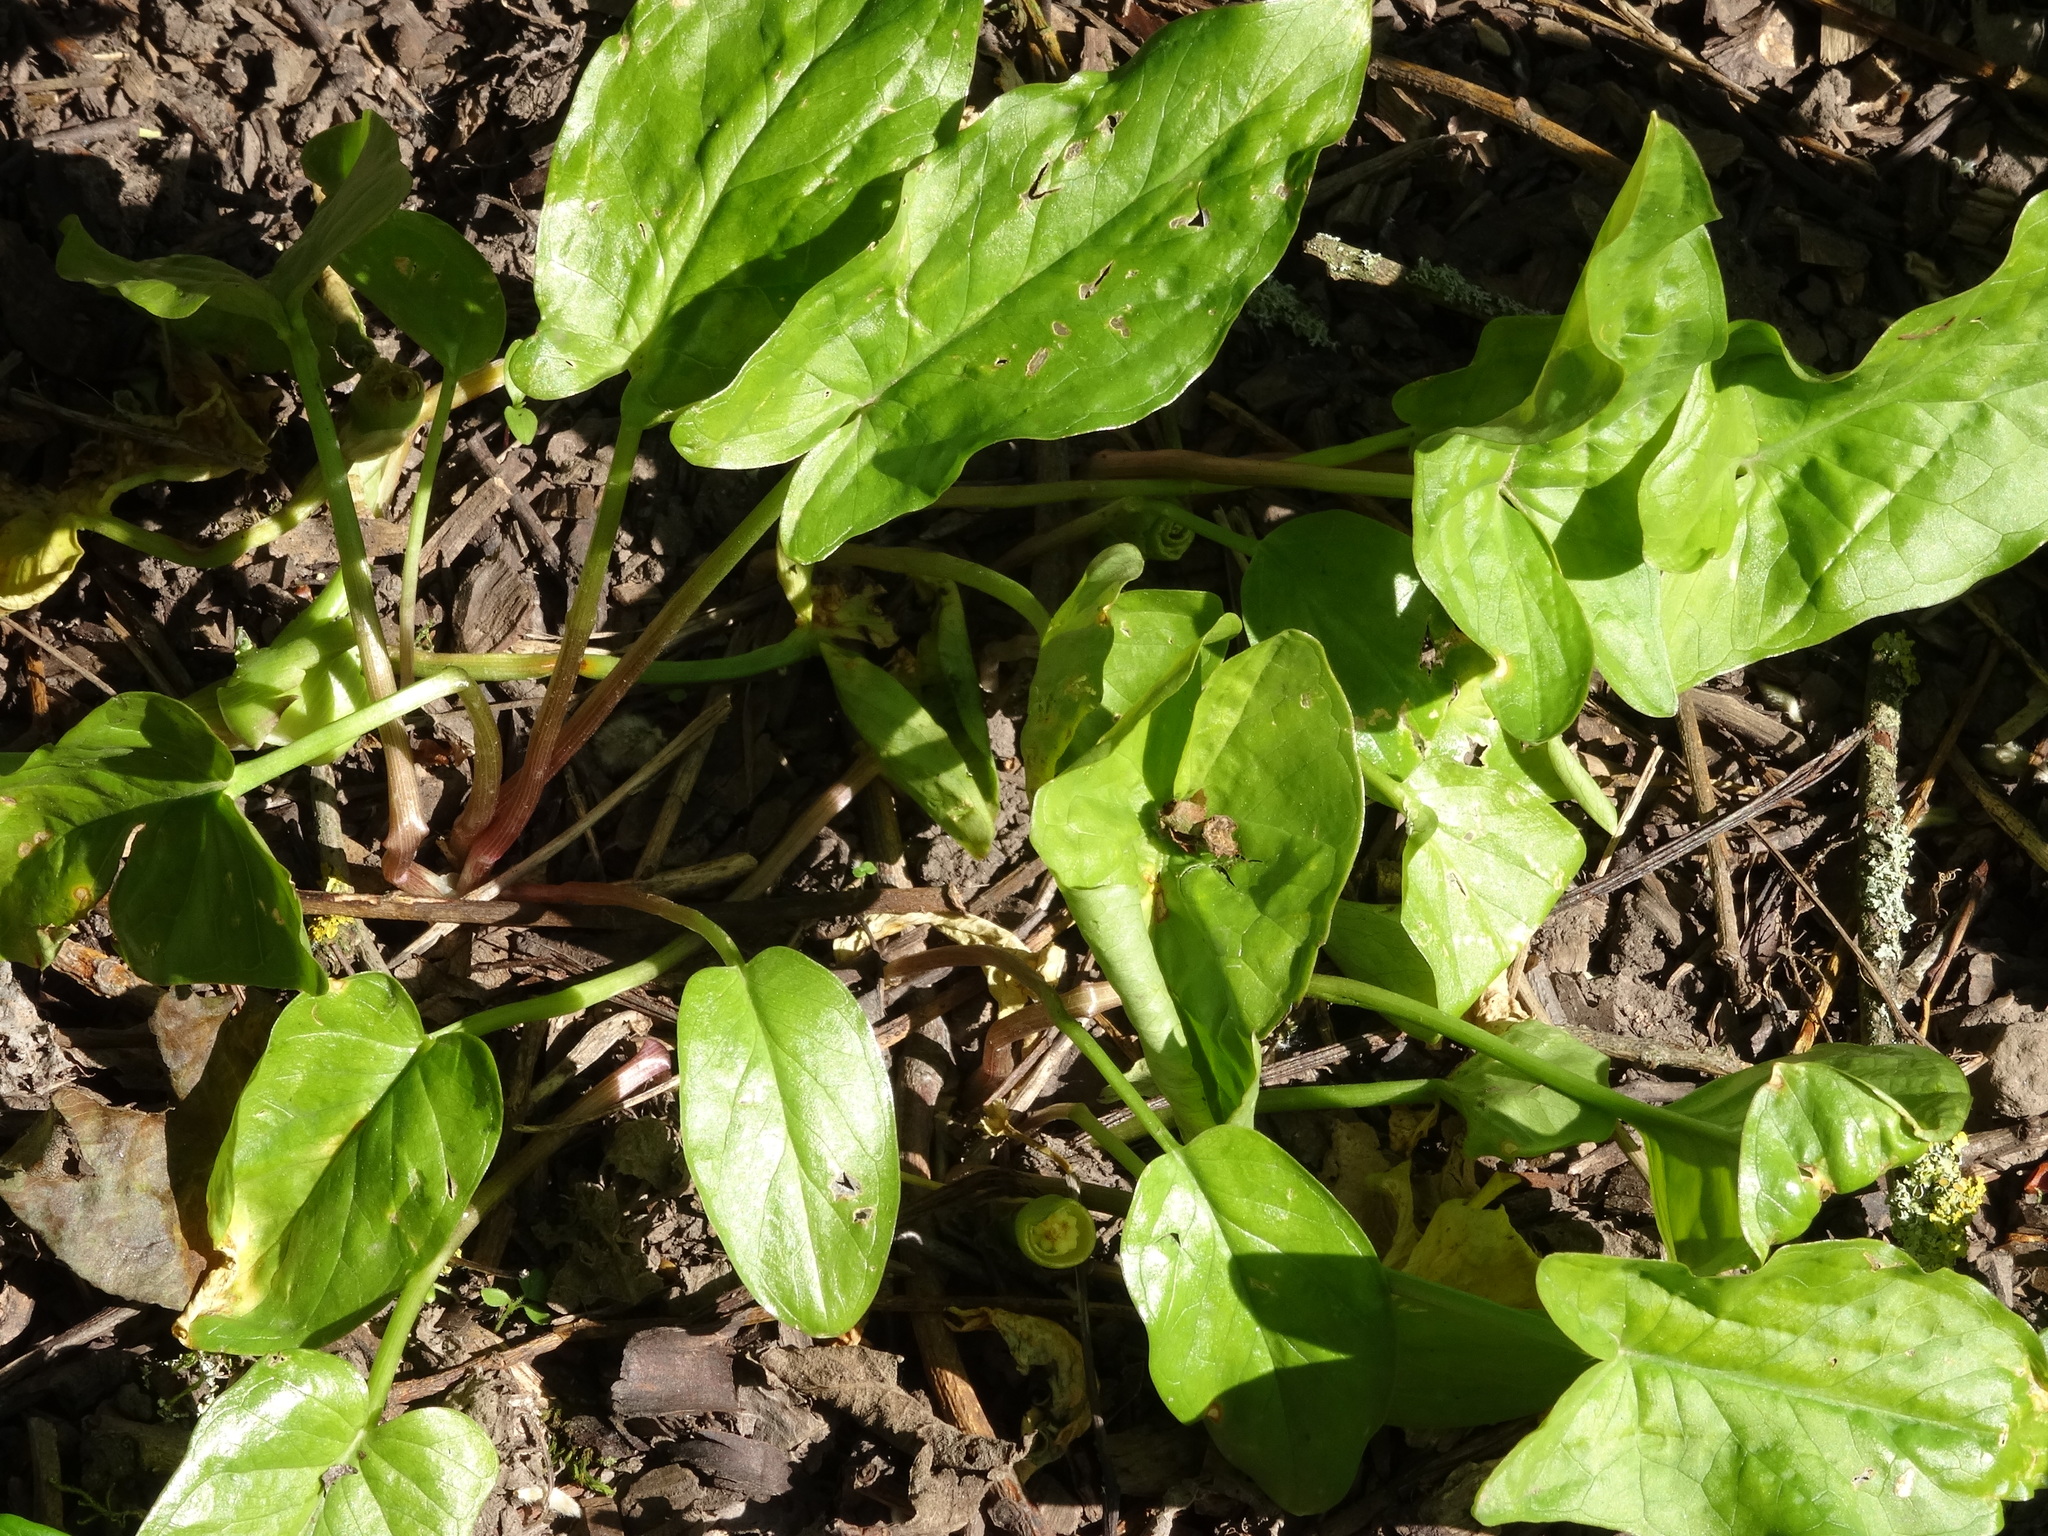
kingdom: Plantae
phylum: Tracheophyta
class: Liliopsida
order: Alismatales
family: Araceae
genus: Arum
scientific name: Arum maculatum
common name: Lords-and-ladies
